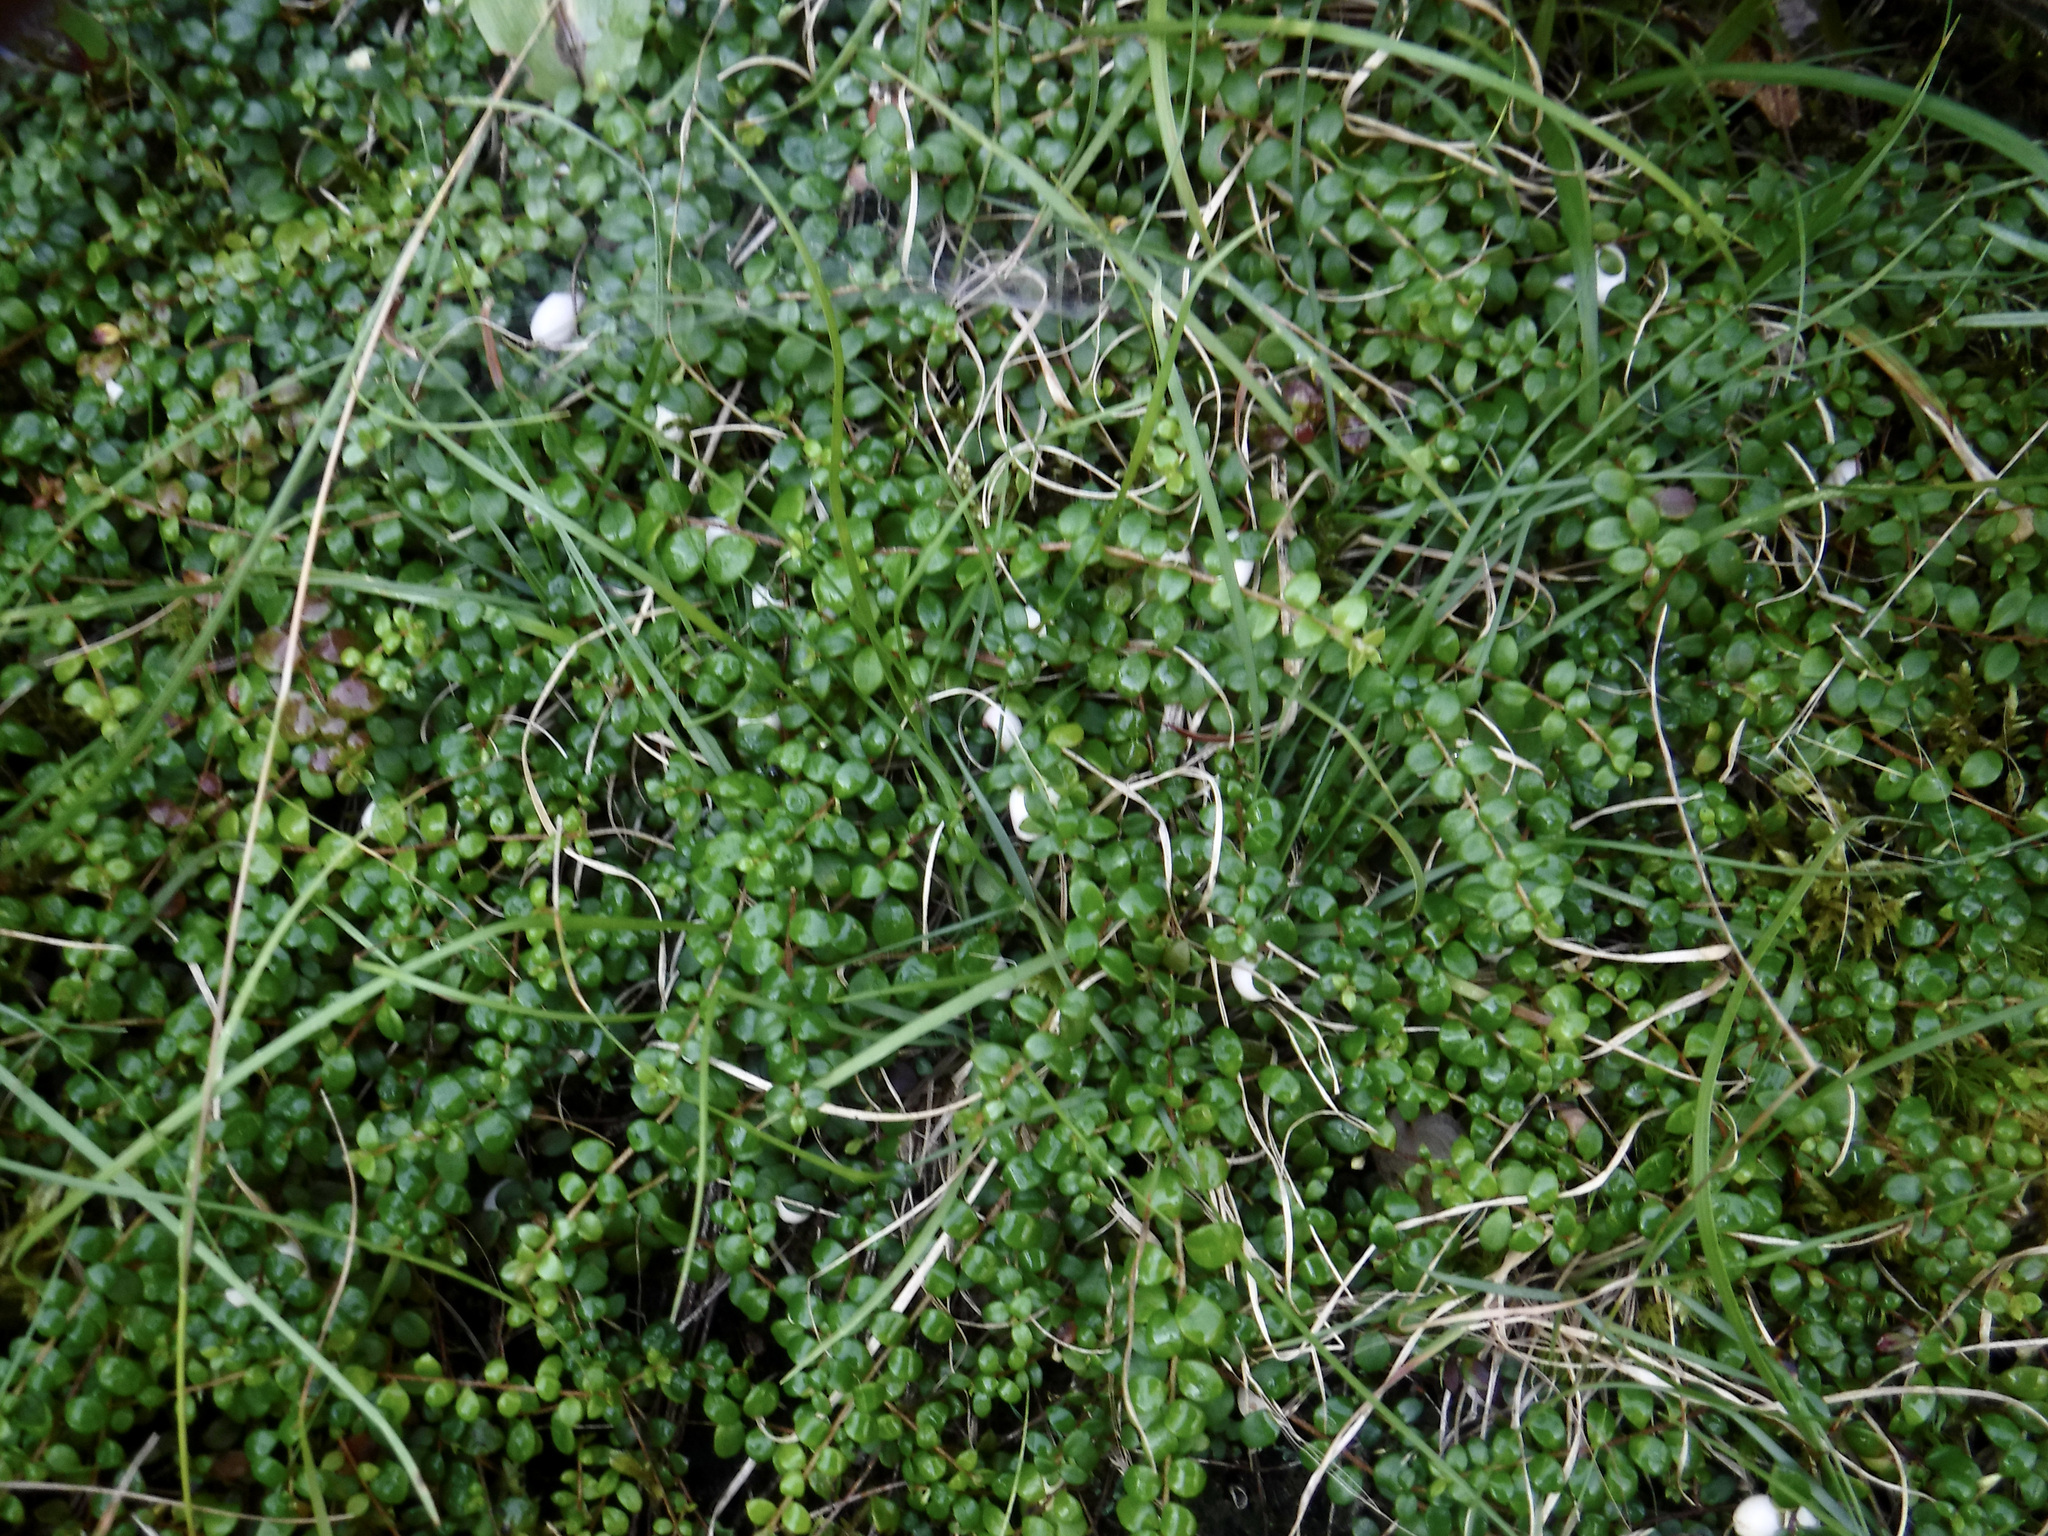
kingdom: Plantae
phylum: Tracheophyta
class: Magnoliopsida
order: Ericales
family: Ericaceae
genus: Gaultheria
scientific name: Gaultheria hispidula
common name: Cancer wintergreen
